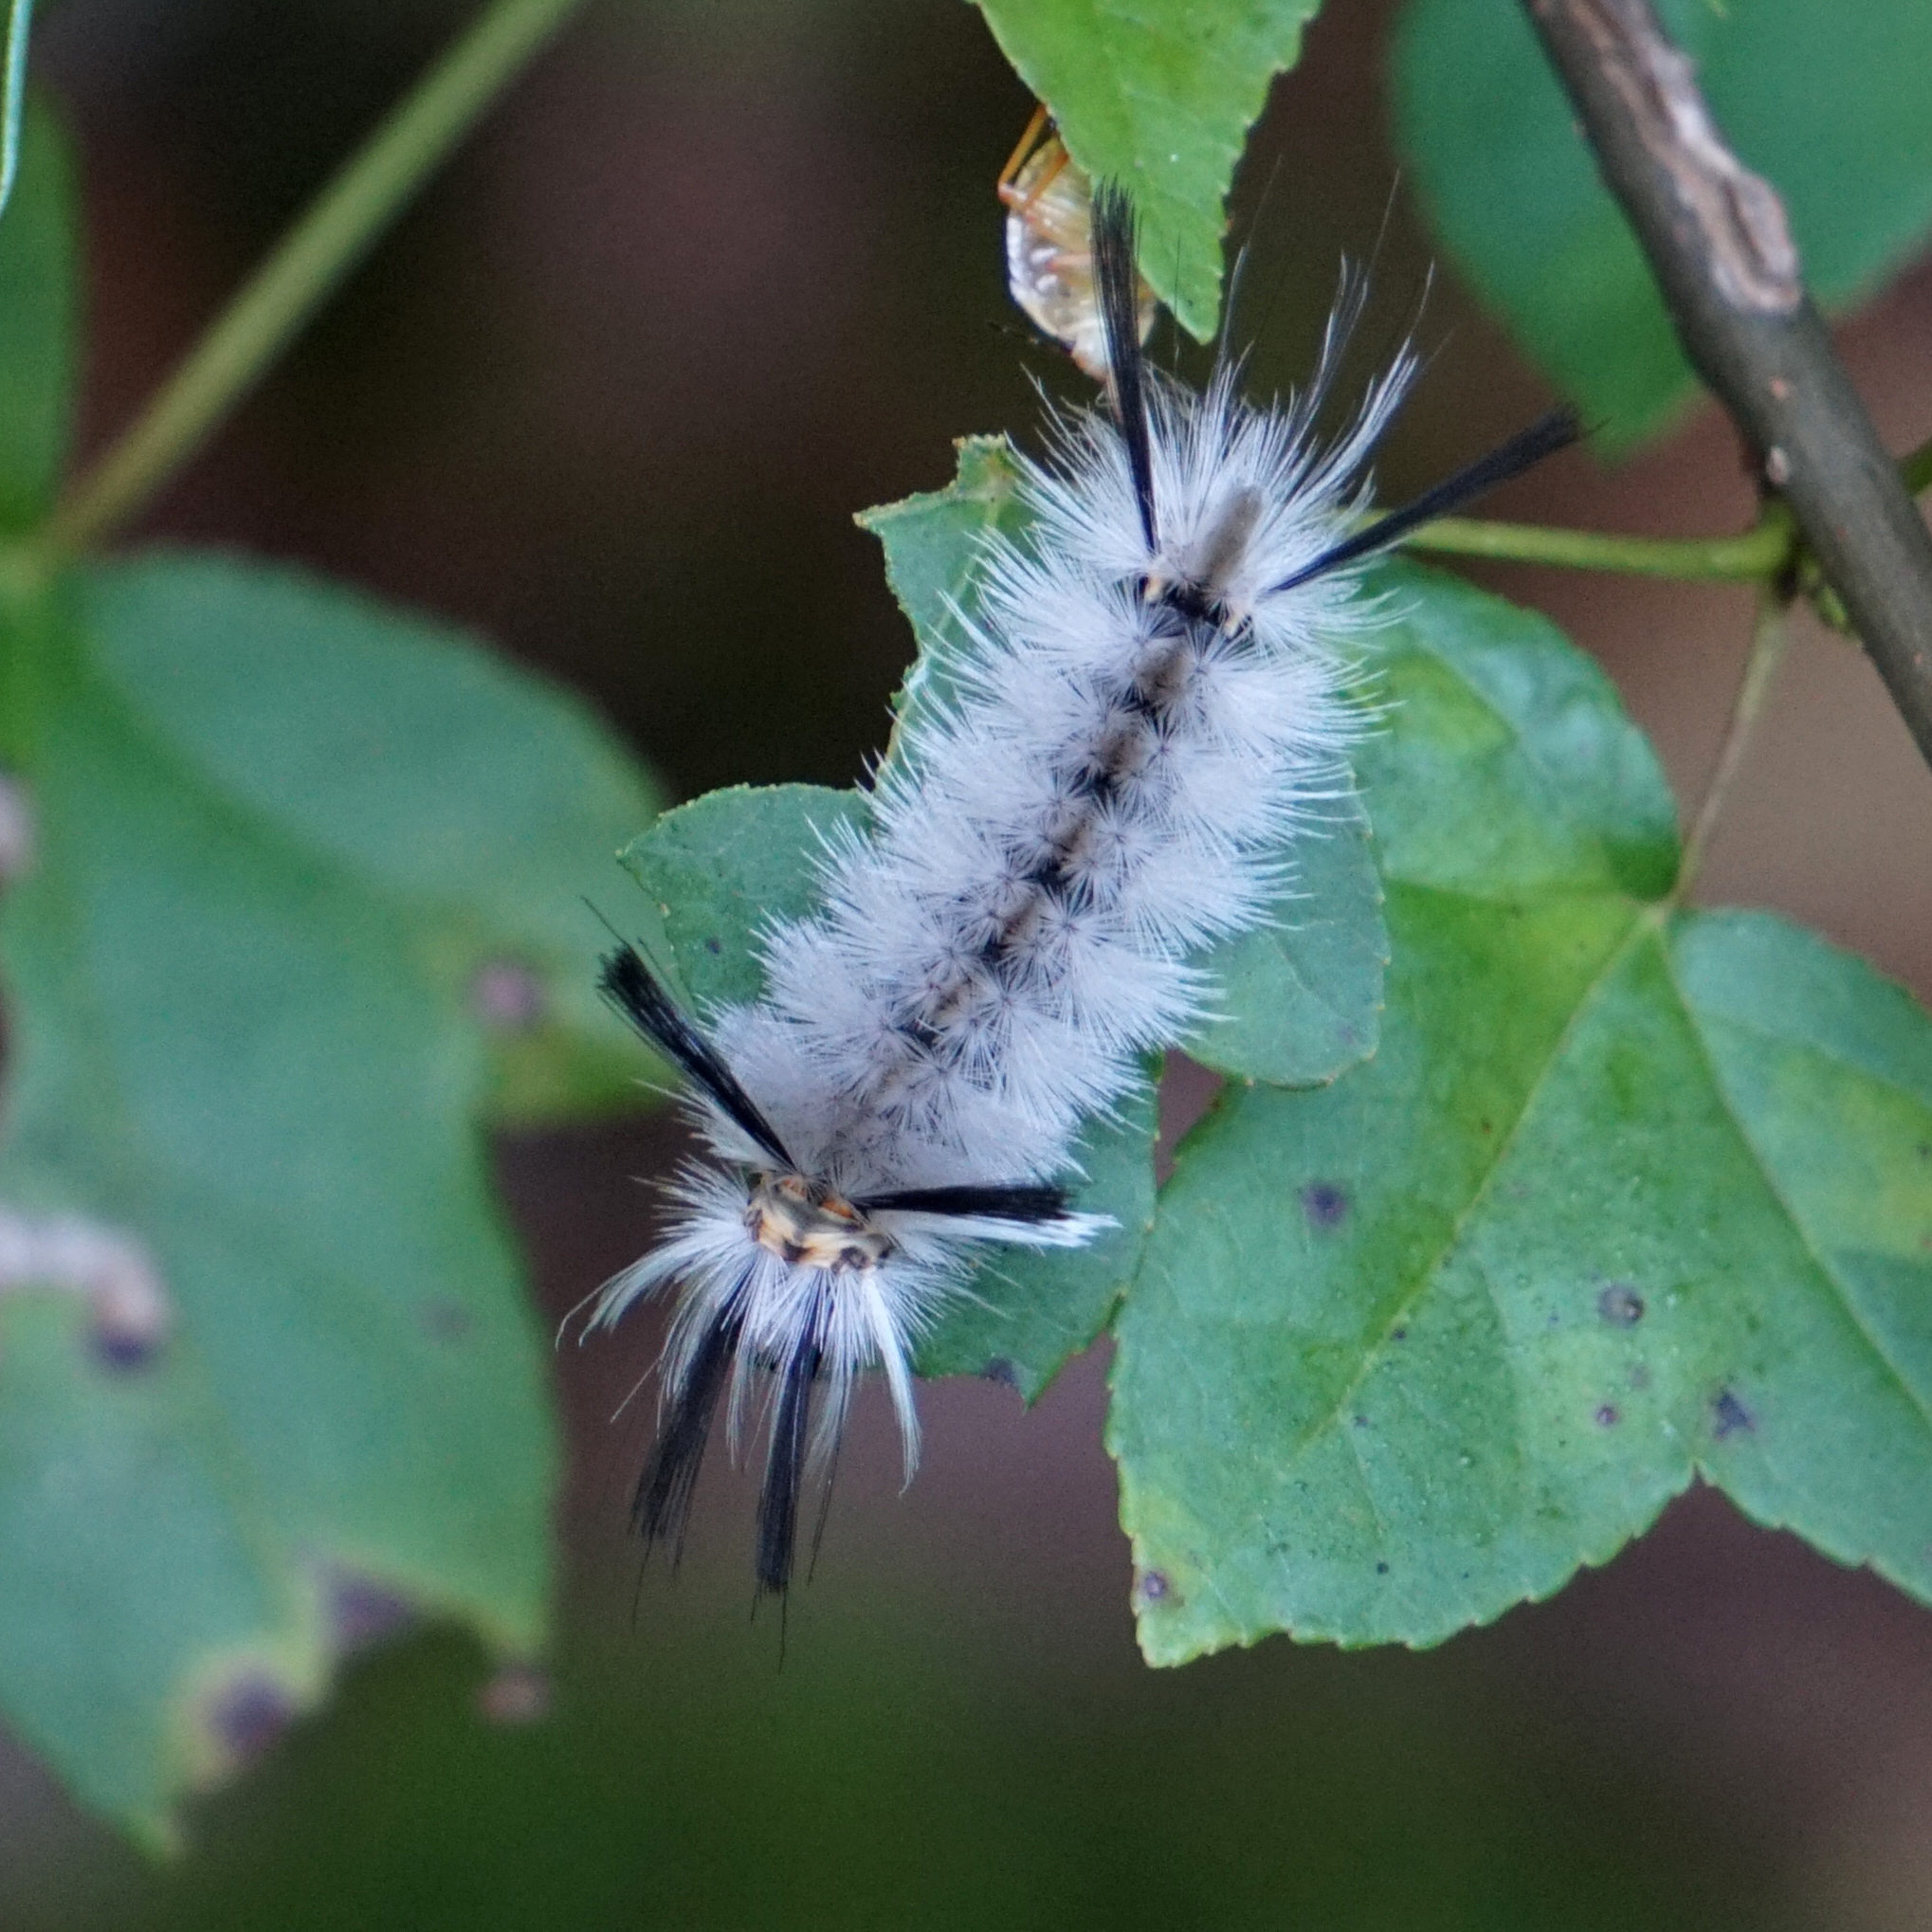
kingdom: Animalia
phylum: Arthropoda
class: Insecta
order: Lepidoptera
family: Erebidae
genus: Halysidota
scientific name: Halysidota tessellaris
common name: Banded tussock moth
